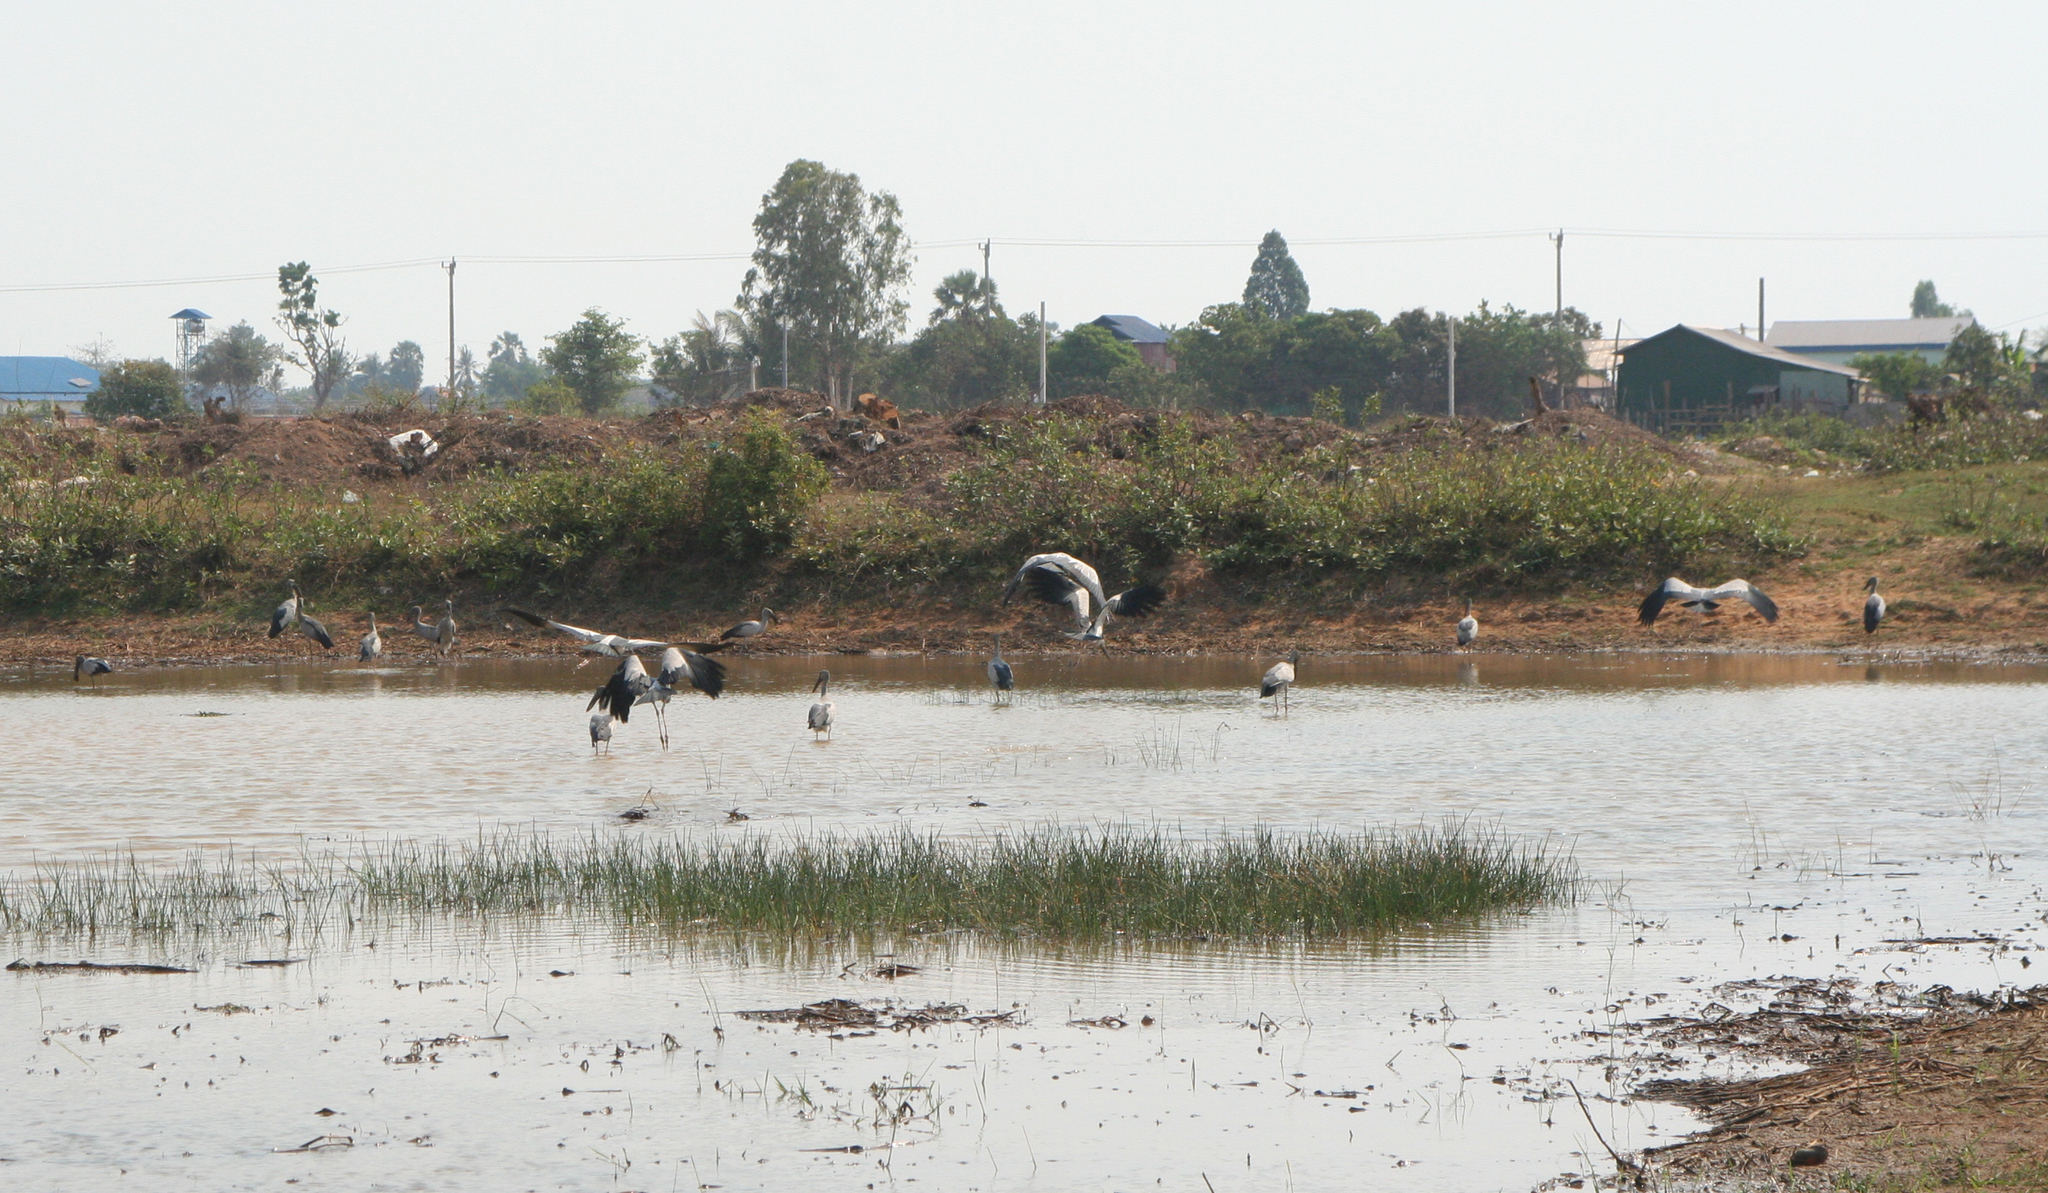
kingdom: Animalia
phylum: Chordata
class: Aves
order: Ciconiiformes
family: Ciconiidae
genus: Anastomus
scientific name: Anastomus oscitans
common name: Asian openbill
